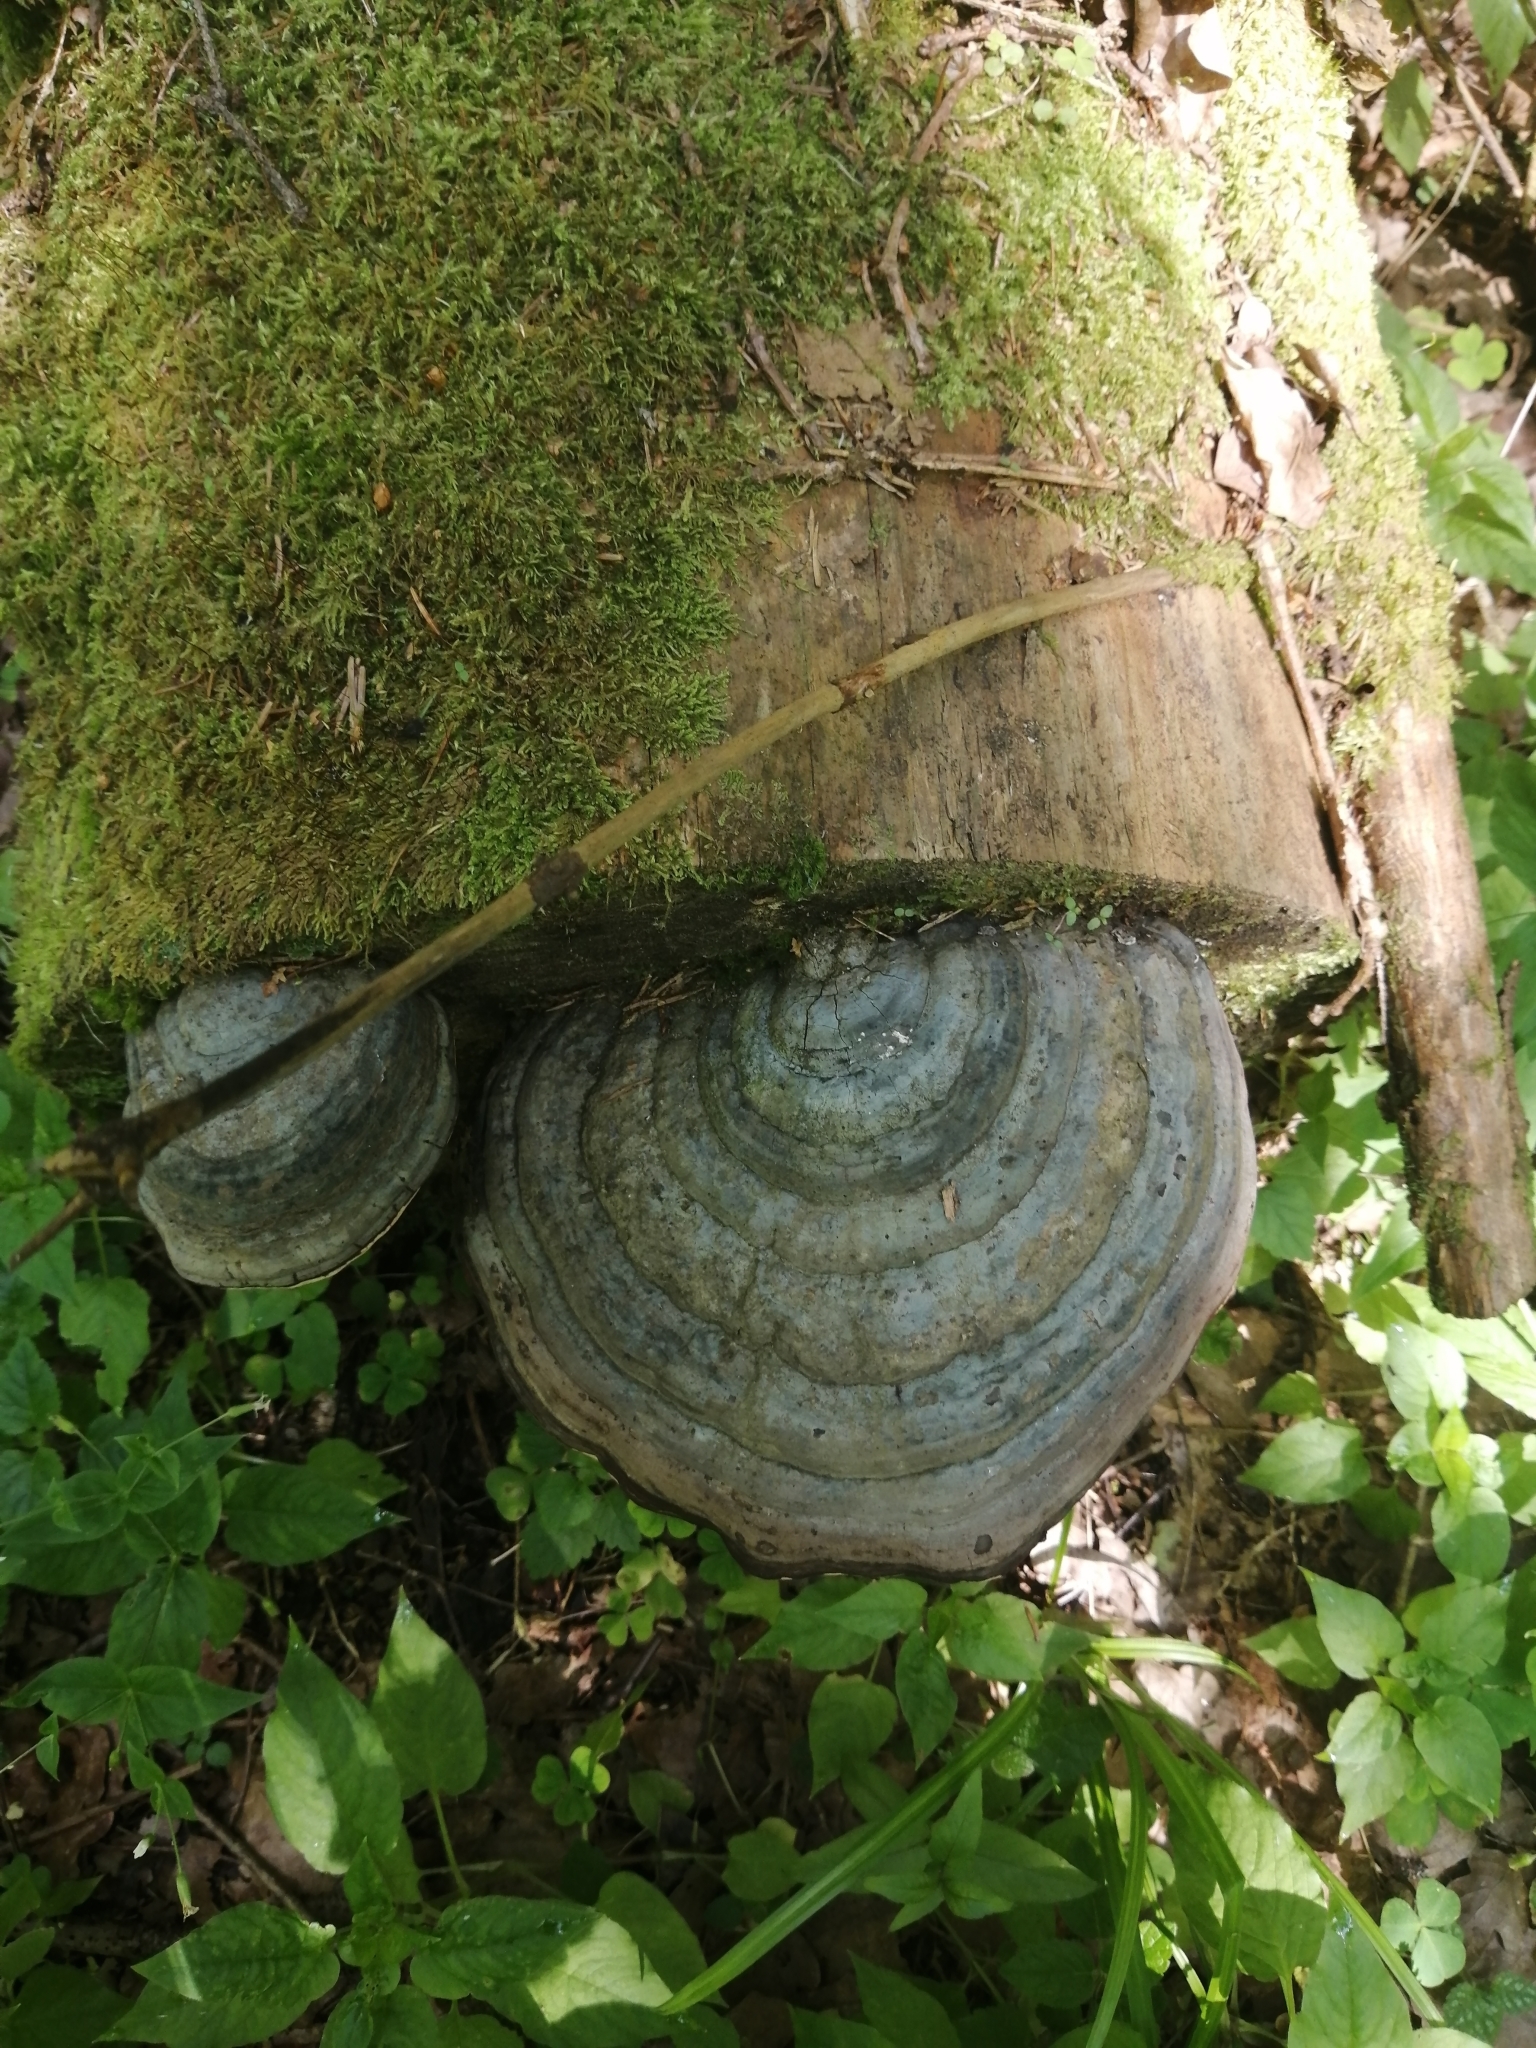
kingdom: Fungi
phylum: Basidiomycota
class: Agaricomycetes
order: Polyporales
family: Polyporaceae
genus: Fomes
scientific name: Fomes fomentarius
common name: Hoof fungus
